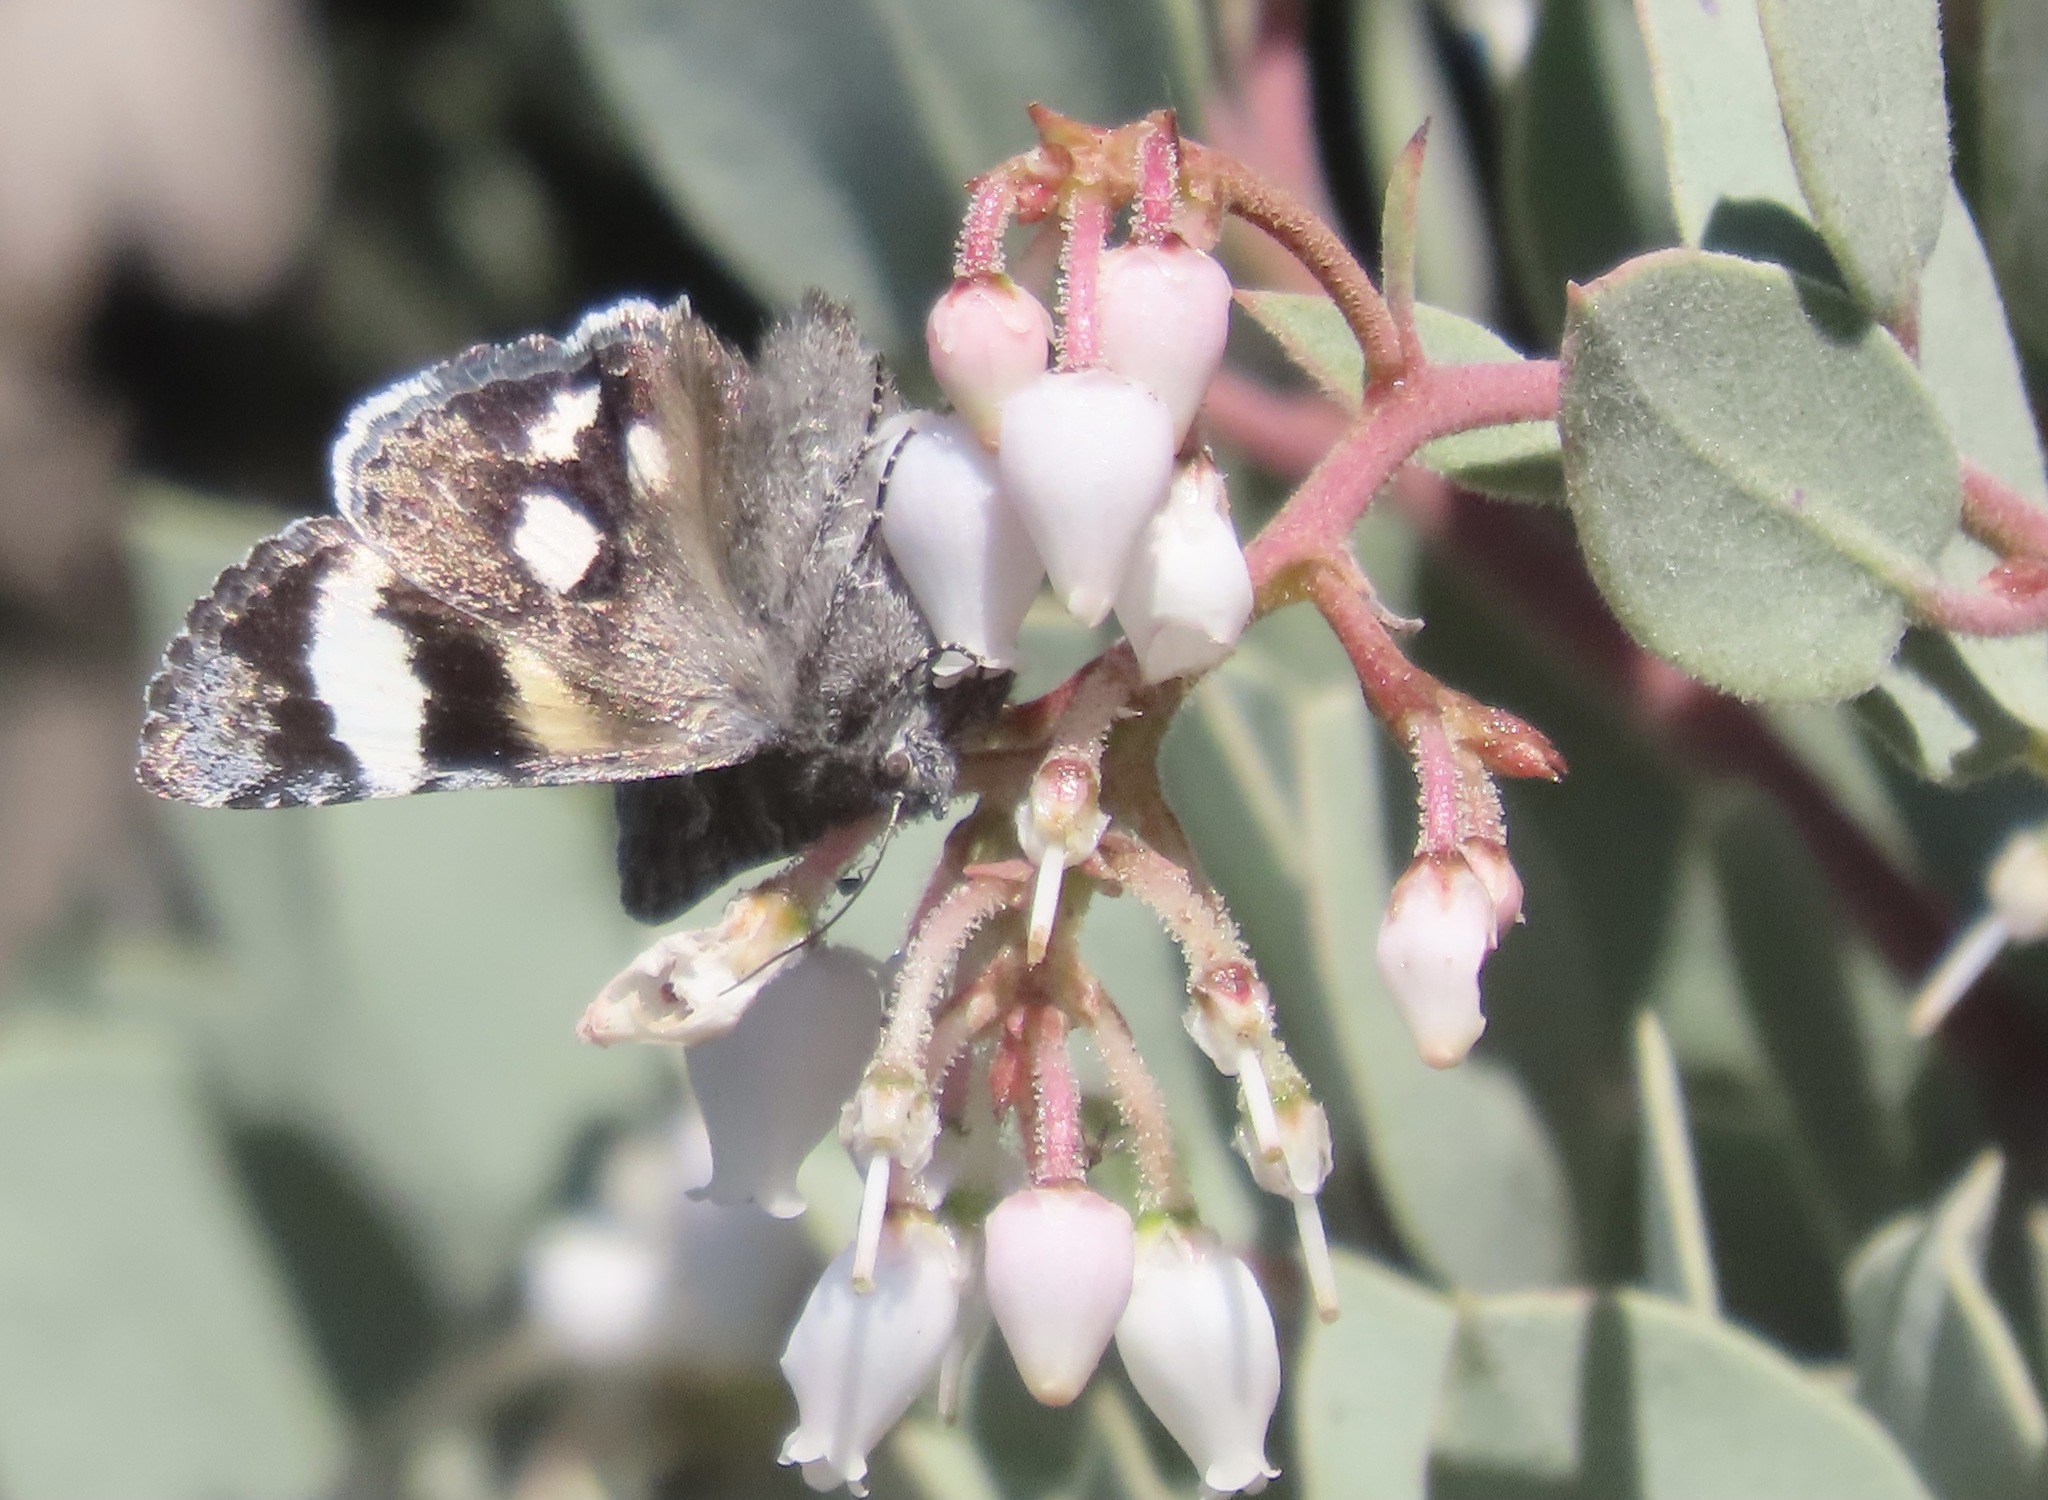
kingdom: Animalia
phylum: Arthropoda
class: Insecta
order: Lepidoptera
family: Erebidae
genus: Litocala
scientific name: Litocala sexsignata
